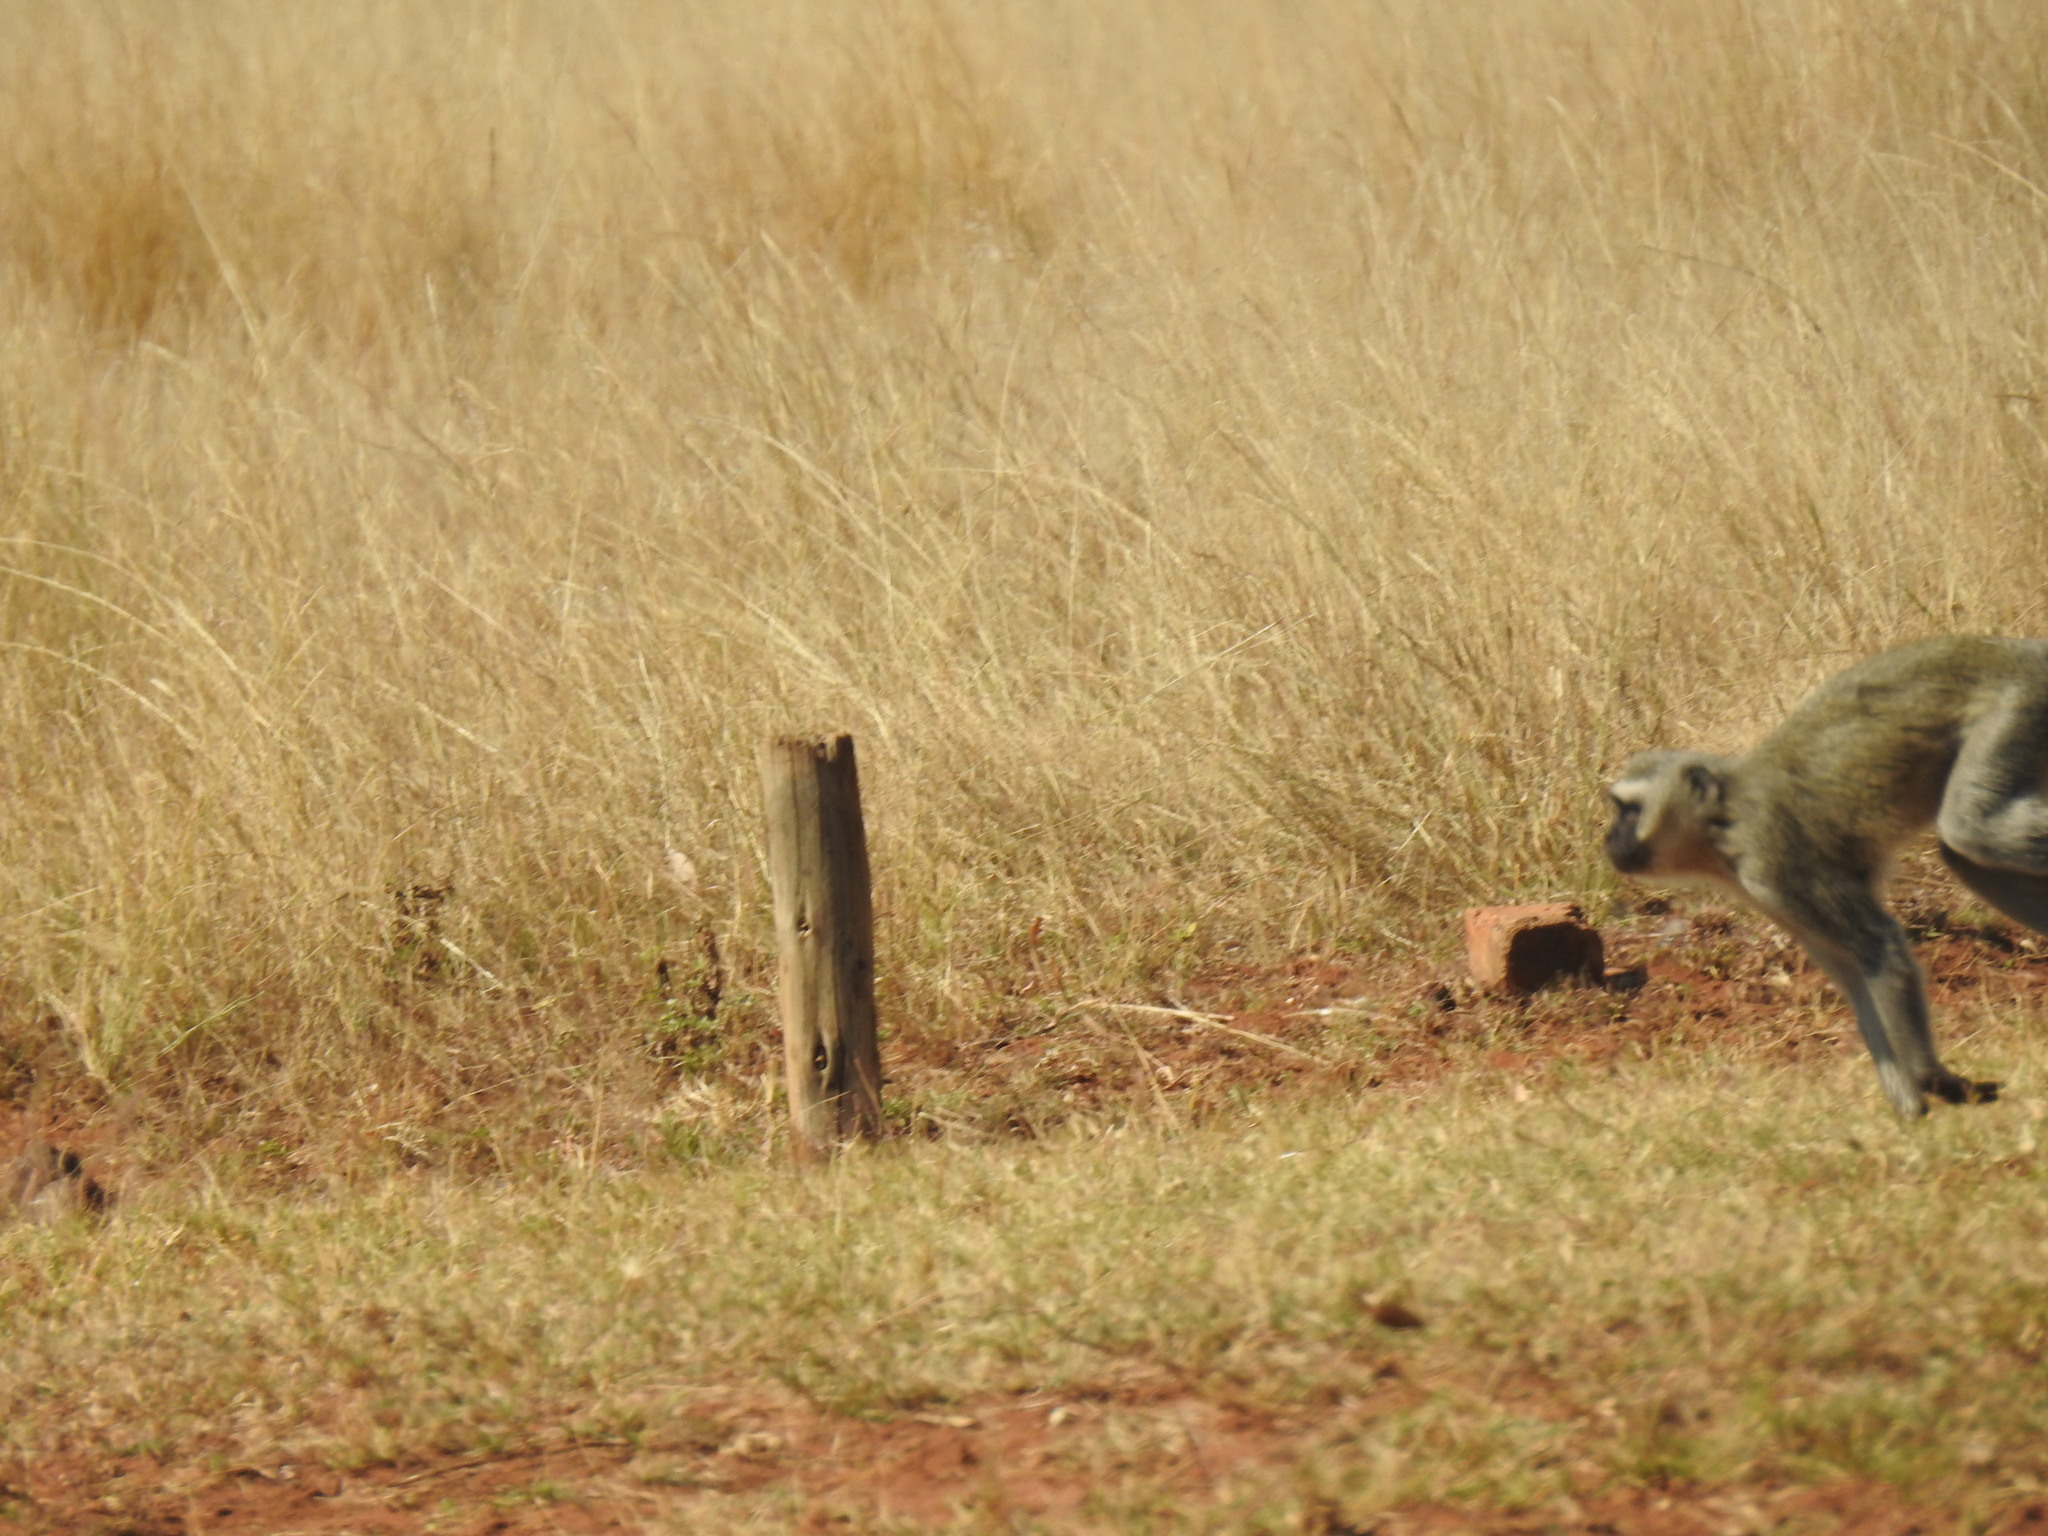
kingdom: Animalia
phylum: Chordata
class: Mammalia
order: Primates
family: Cercopithecidae
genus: Chlorocebus
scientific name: Chlorocebus pygerythrus
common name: Vervet monkey
